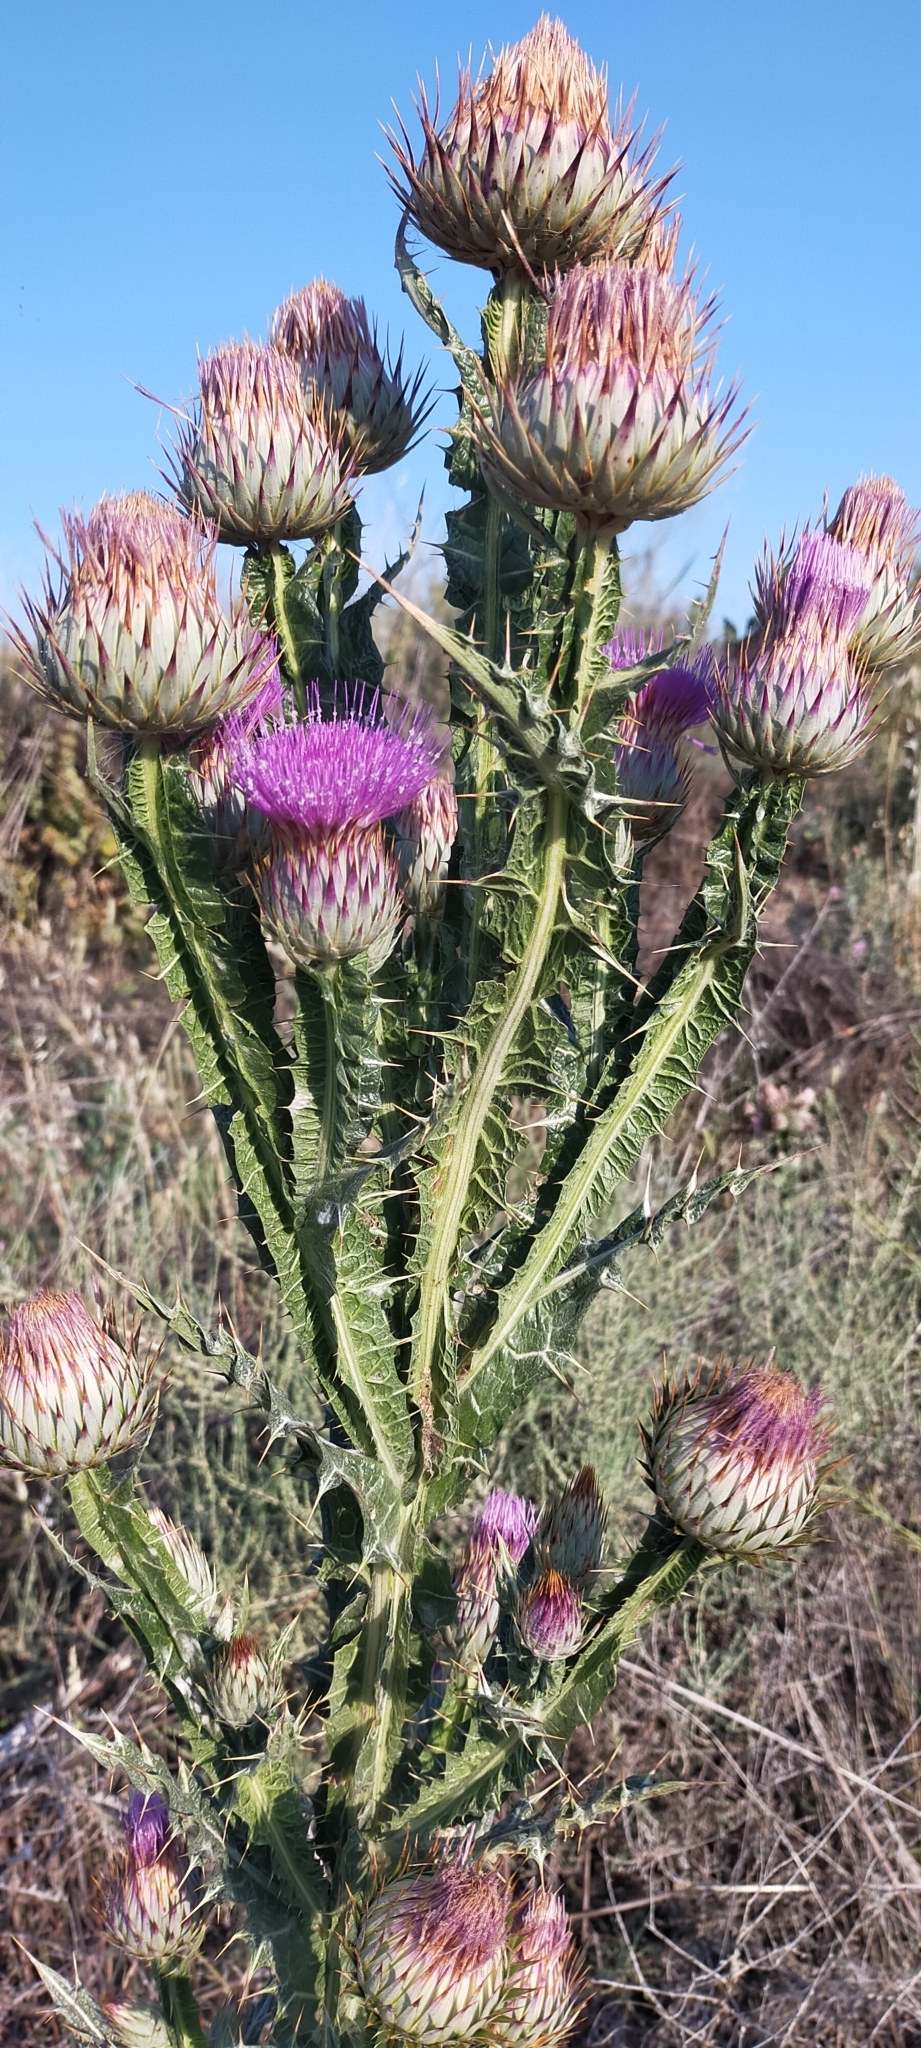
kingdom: Plantae
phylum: Tracheophyta
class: Magnoliopsida
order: Asterales
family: Asteraceae
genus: Onopordum
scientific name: Onopordum nervosum
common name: Reticulate thistle
